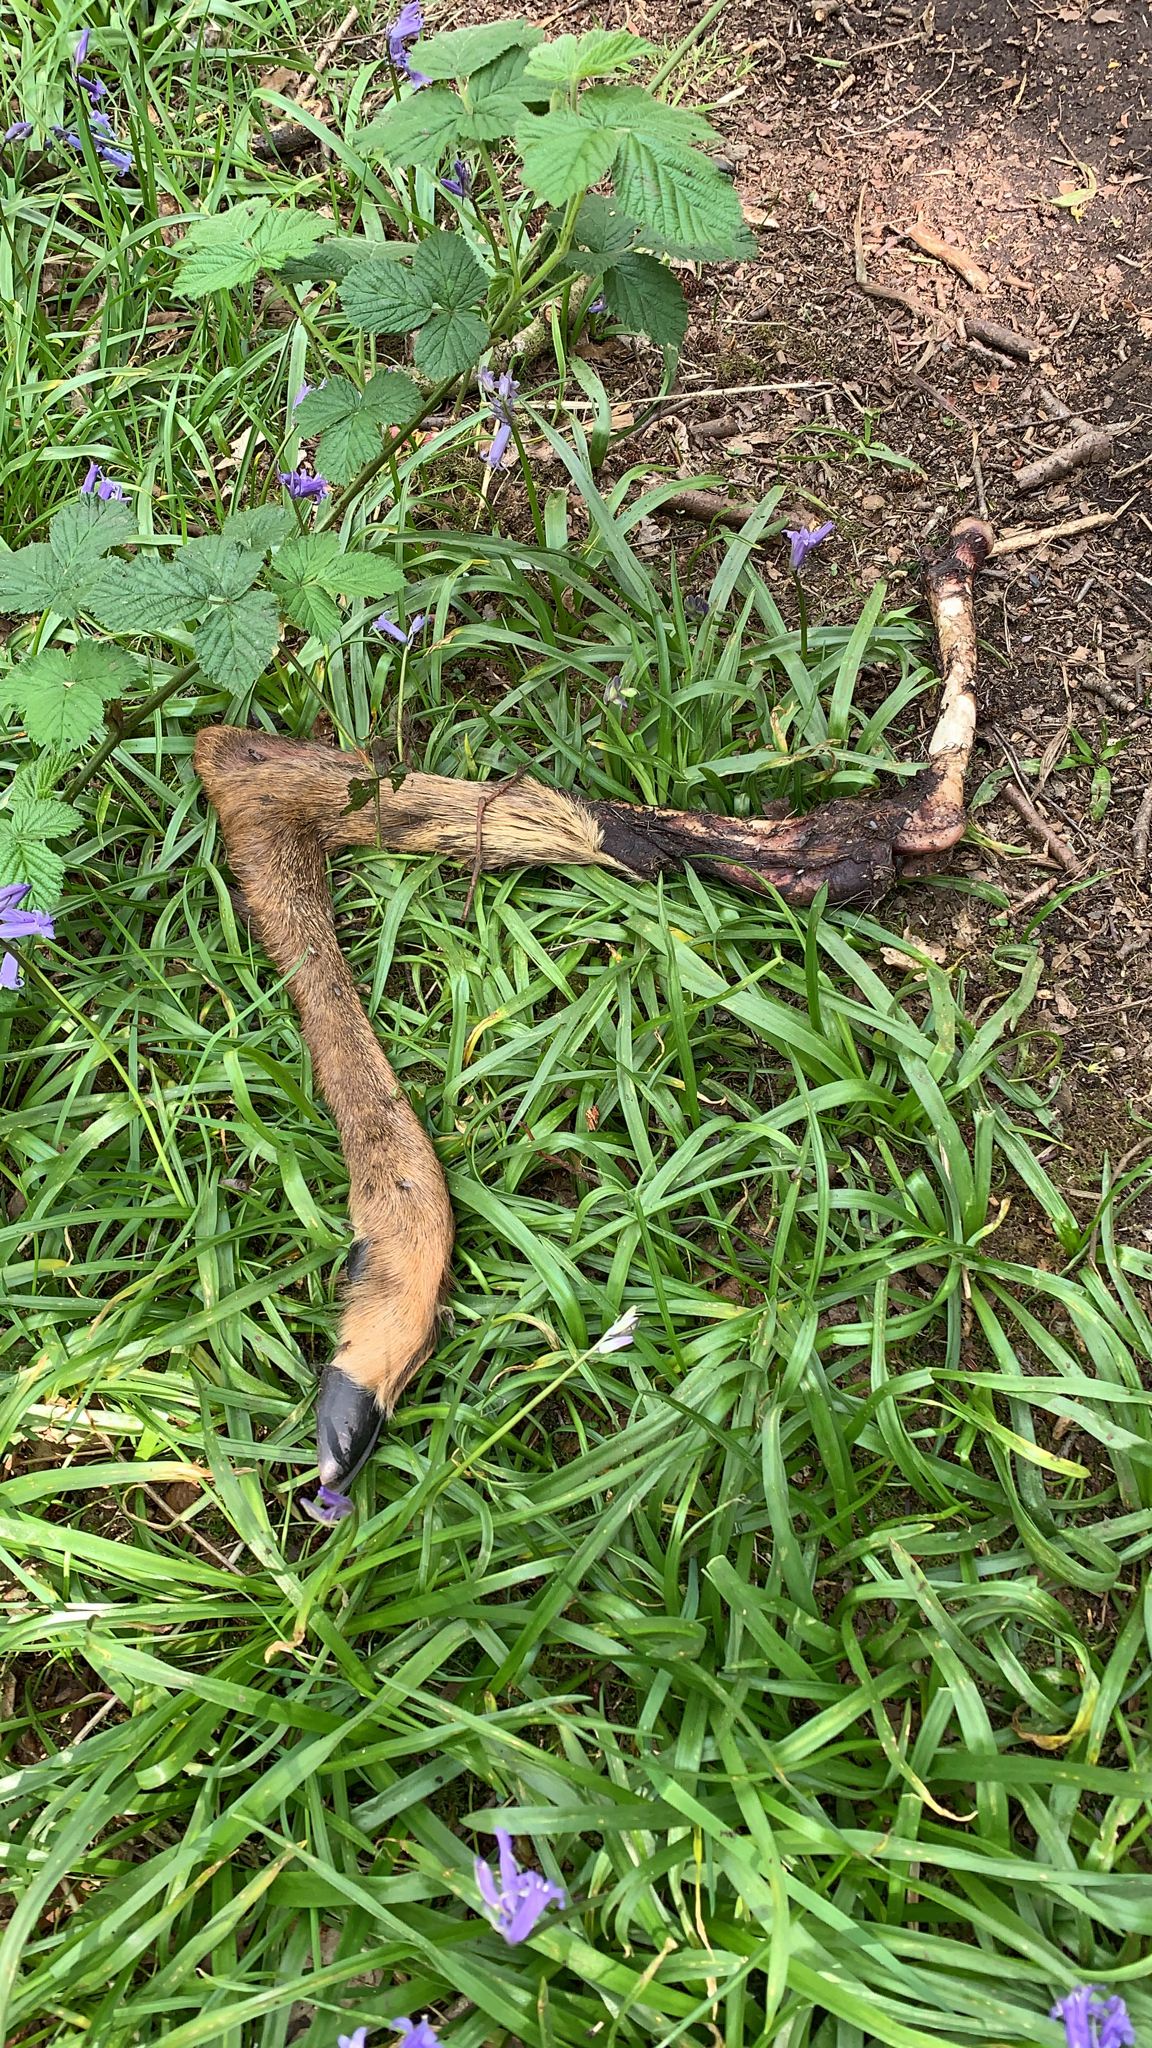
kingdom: Animalia
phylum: Chordata
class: Mammalia
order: Artiodactyla
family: Cervidae
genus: Capreolus
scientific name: Capreolus capreolus
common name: Western roe deer
